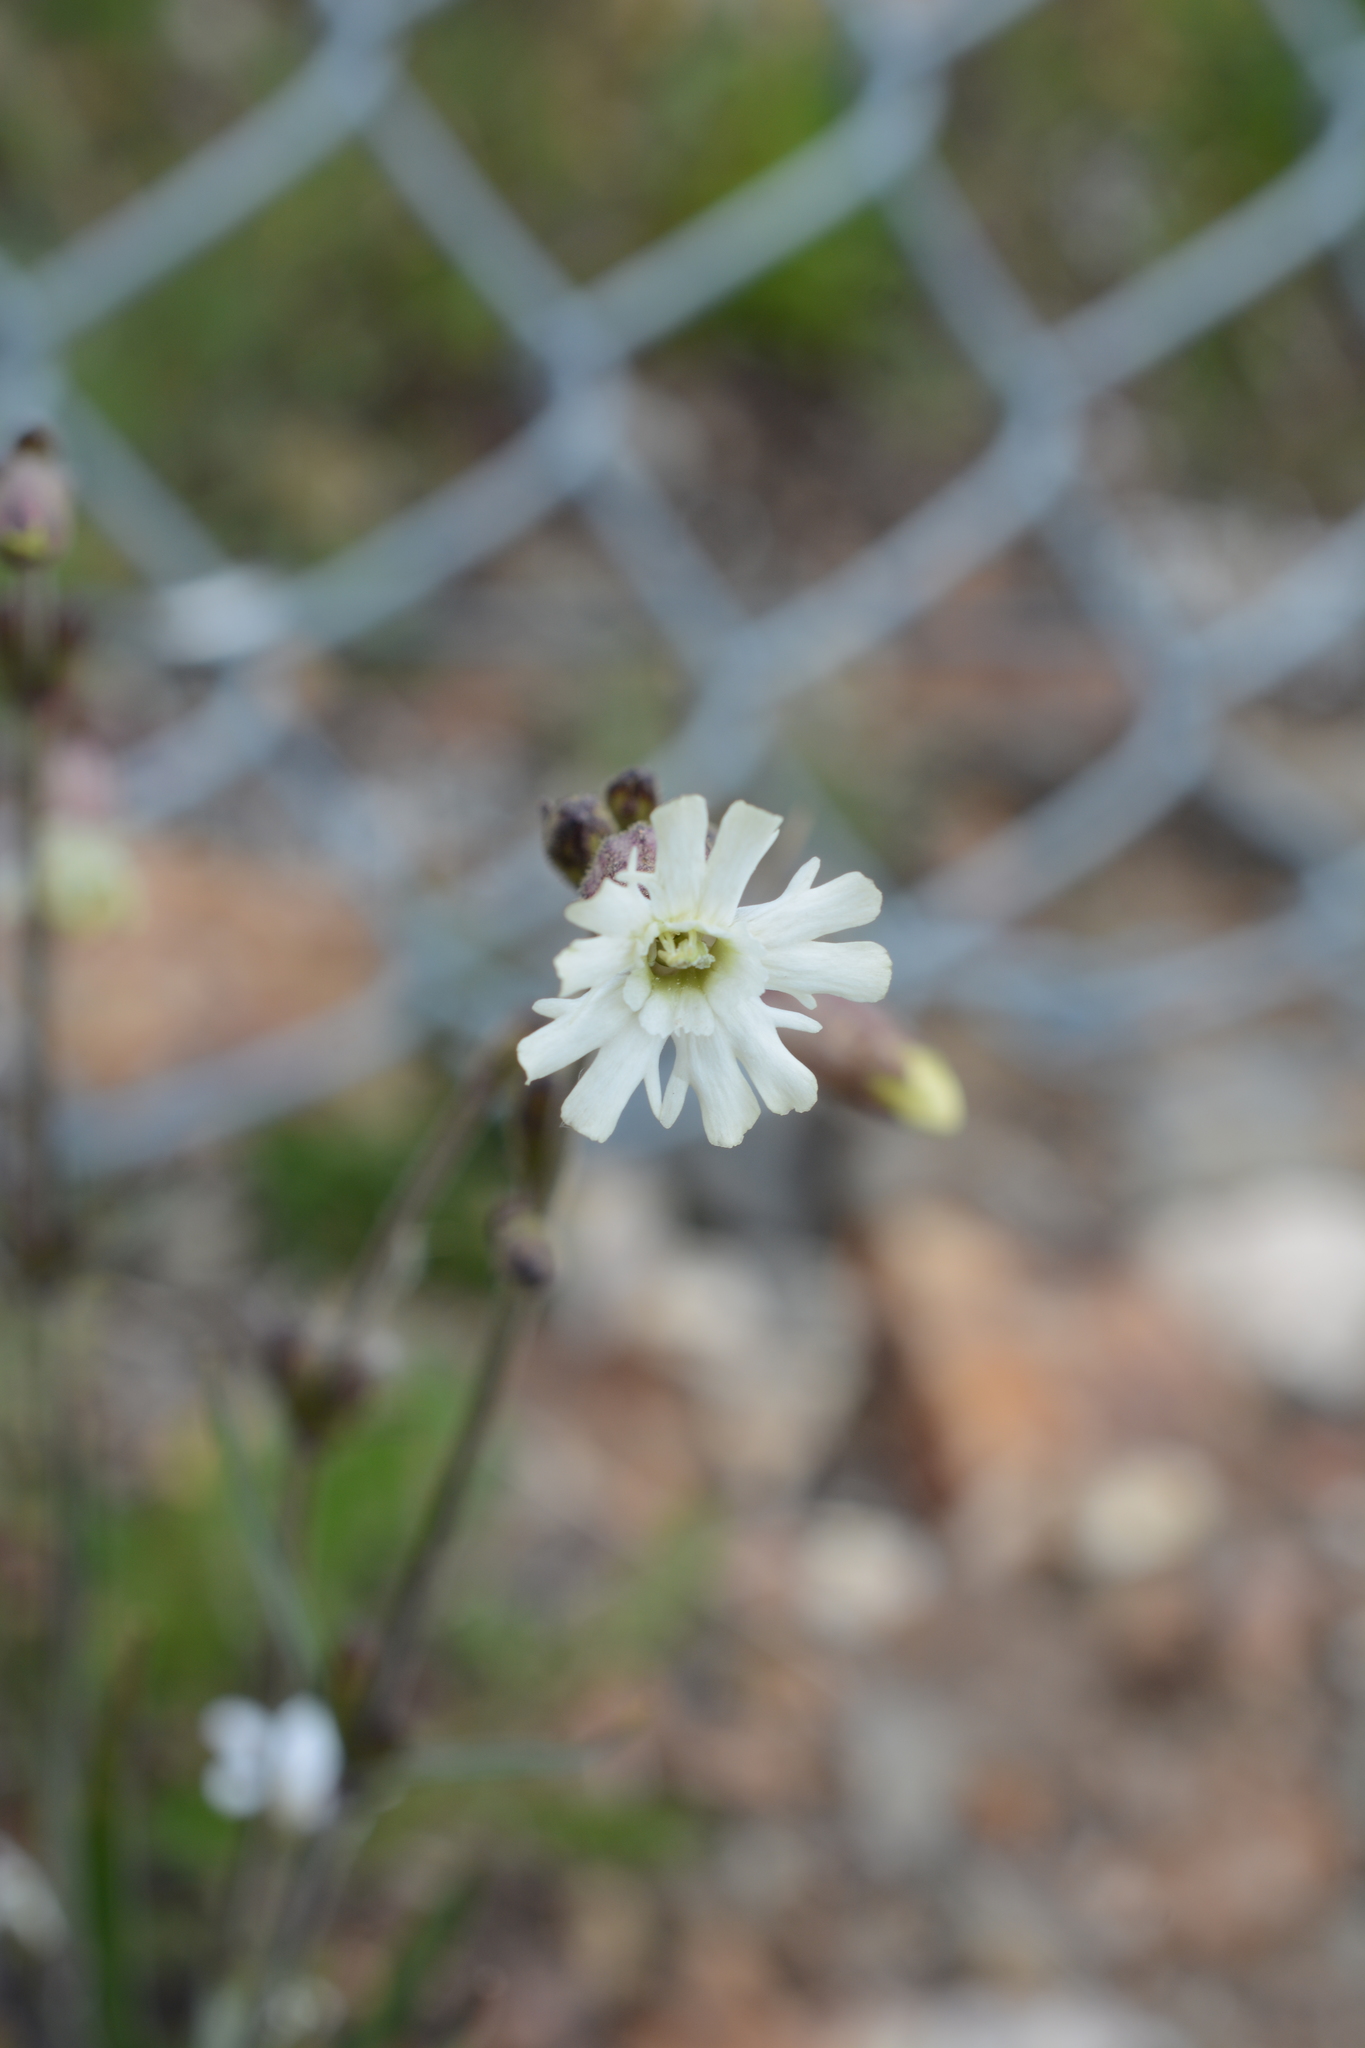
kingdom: Plantae
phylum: Tracheophyta
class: Magnoliopsida
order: Caryophyllales
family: Caryophyllaceae
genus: Silene
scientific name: Silene parryi
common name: Parry's campion
